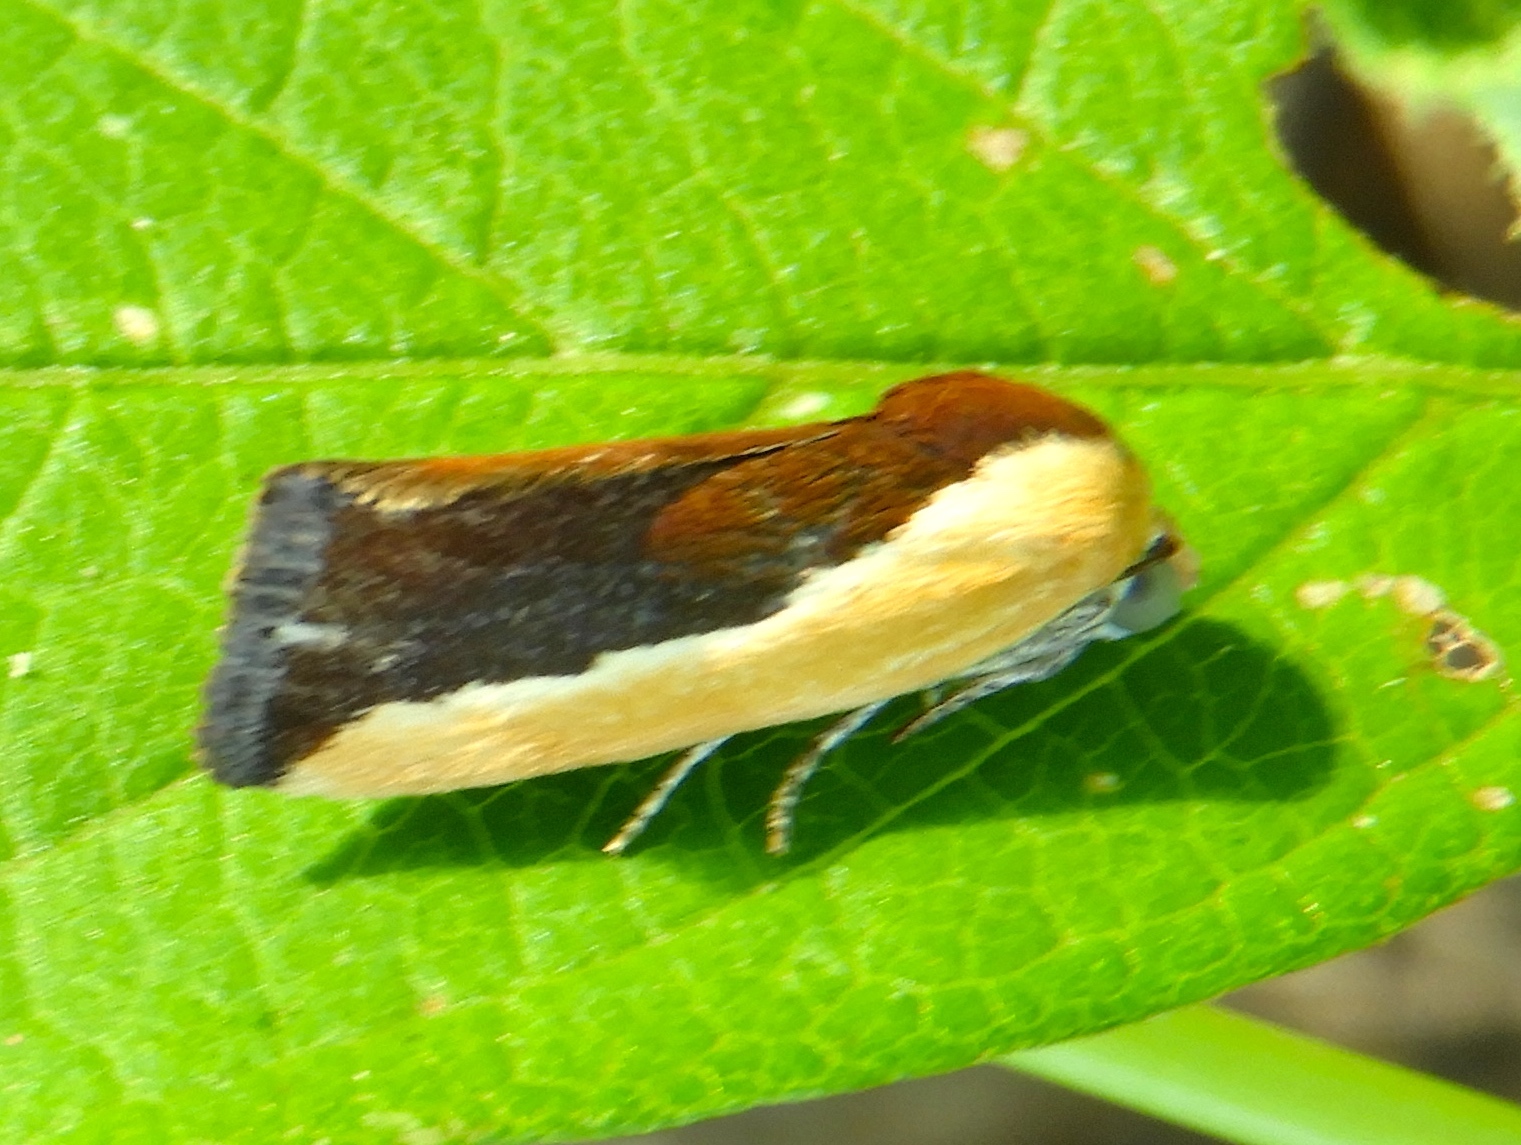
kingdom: Animalia
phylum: Arthropoda
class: Insecta
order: Lepidoptera
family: Noctuidae
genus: Ponometia
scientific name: Ponometia
